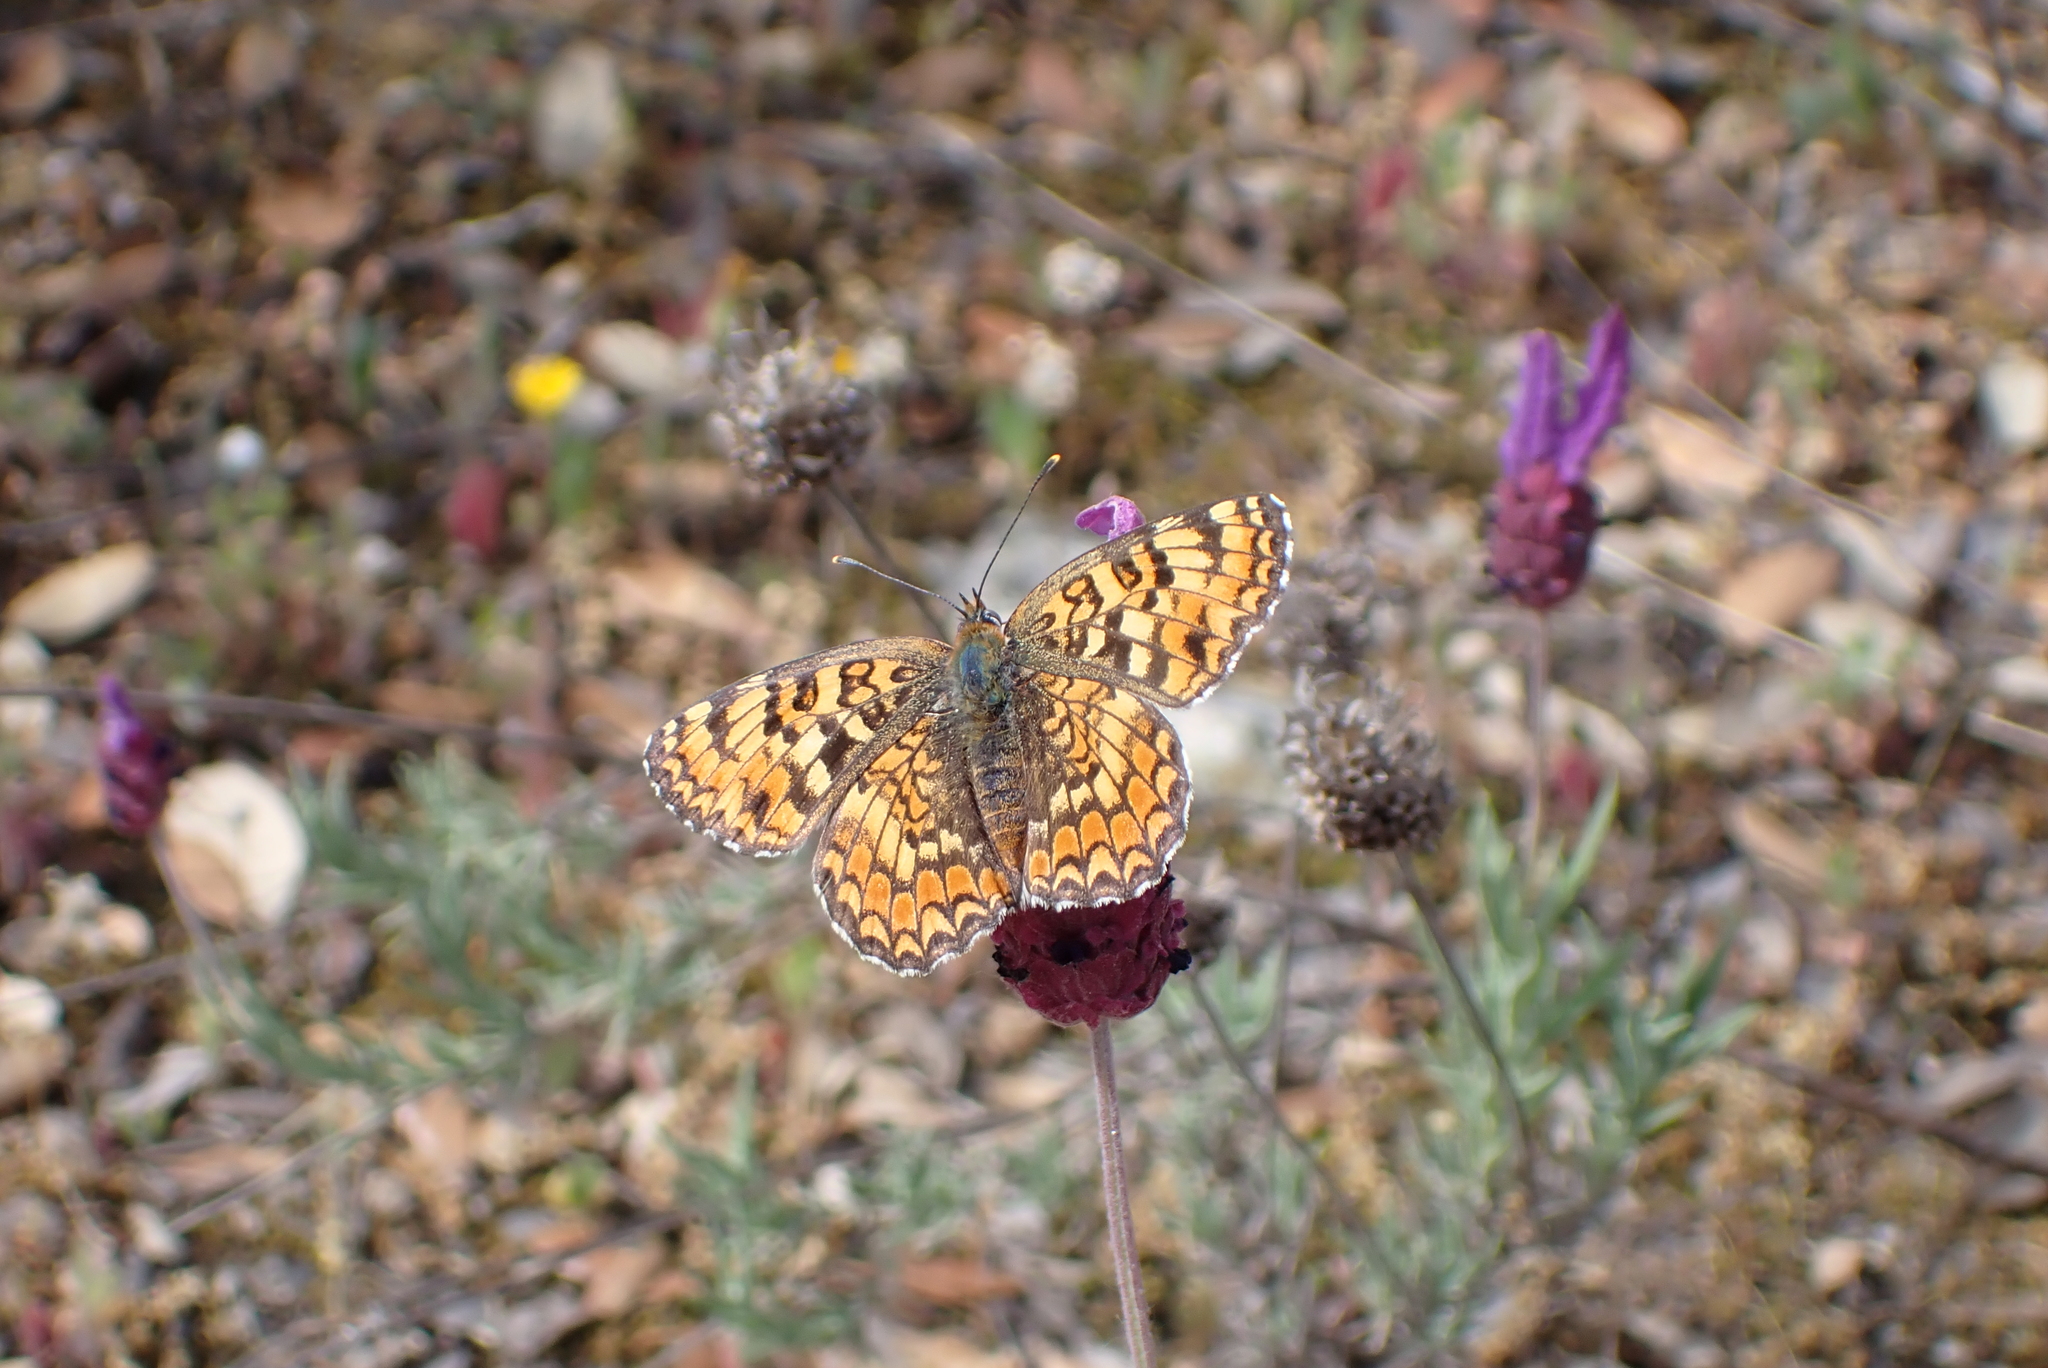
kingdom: Animalia
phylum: Arthropoda
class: Insecta
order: Lepidoptera
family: Nymphalidae
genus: Melitaea
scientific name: Melitaea phoebe
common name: Knapweed fritillary
